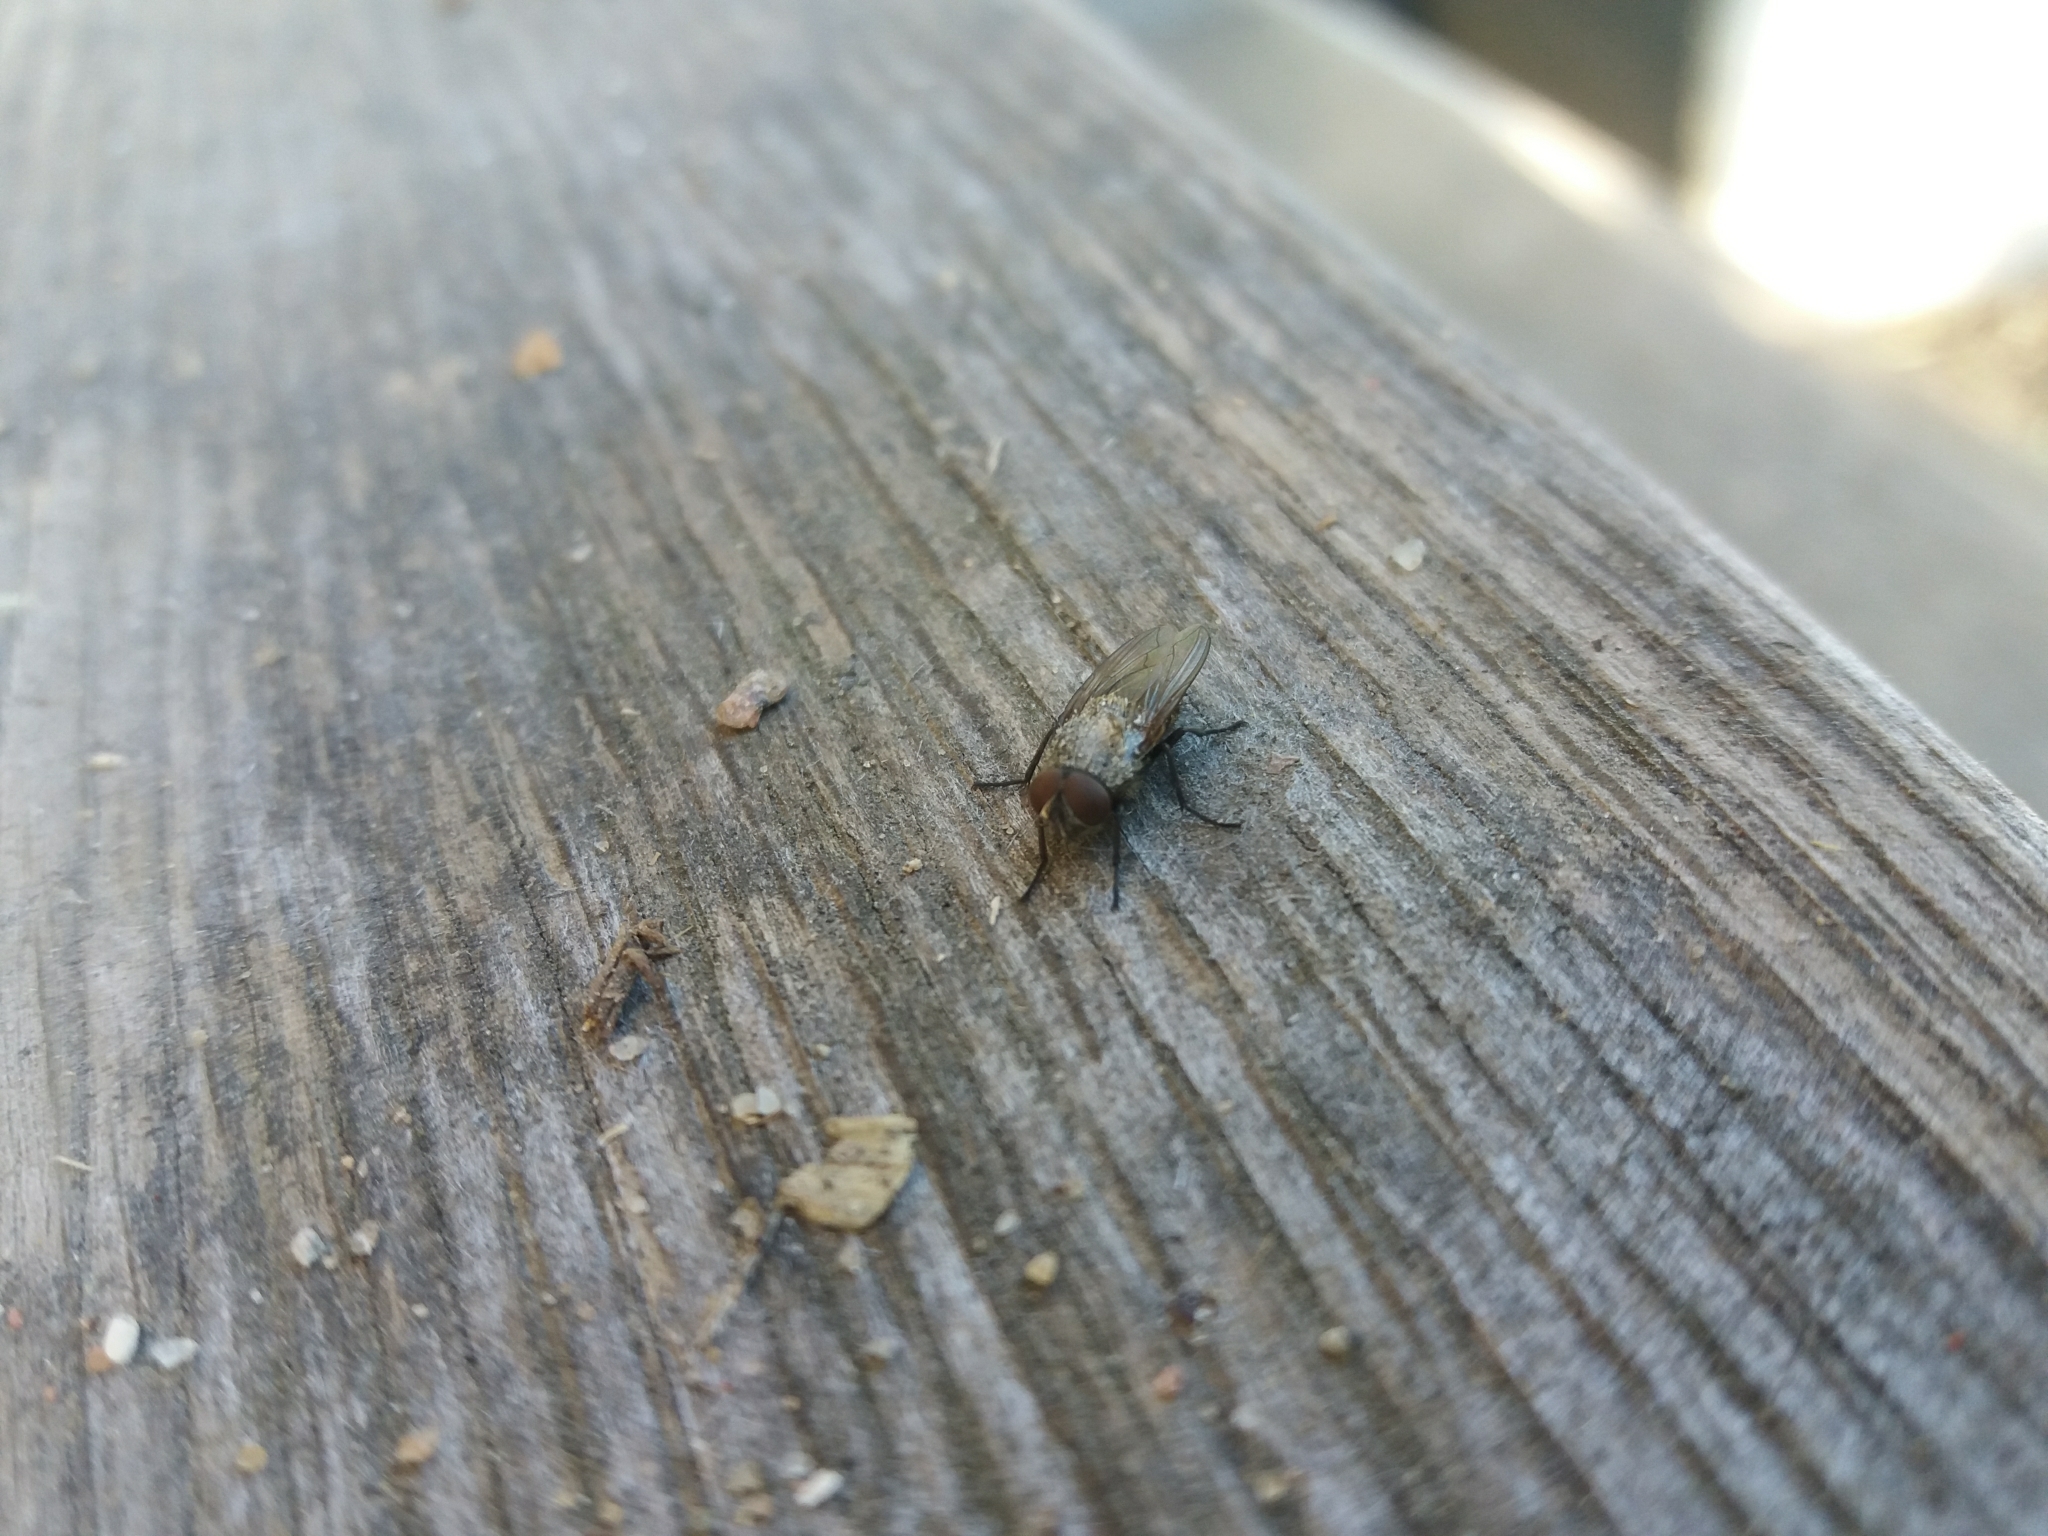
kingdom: Animalia
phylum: Arthropoda
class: Insecta
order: Diptera
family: Polleniidae
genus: Pollenia
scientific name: Pollenia
